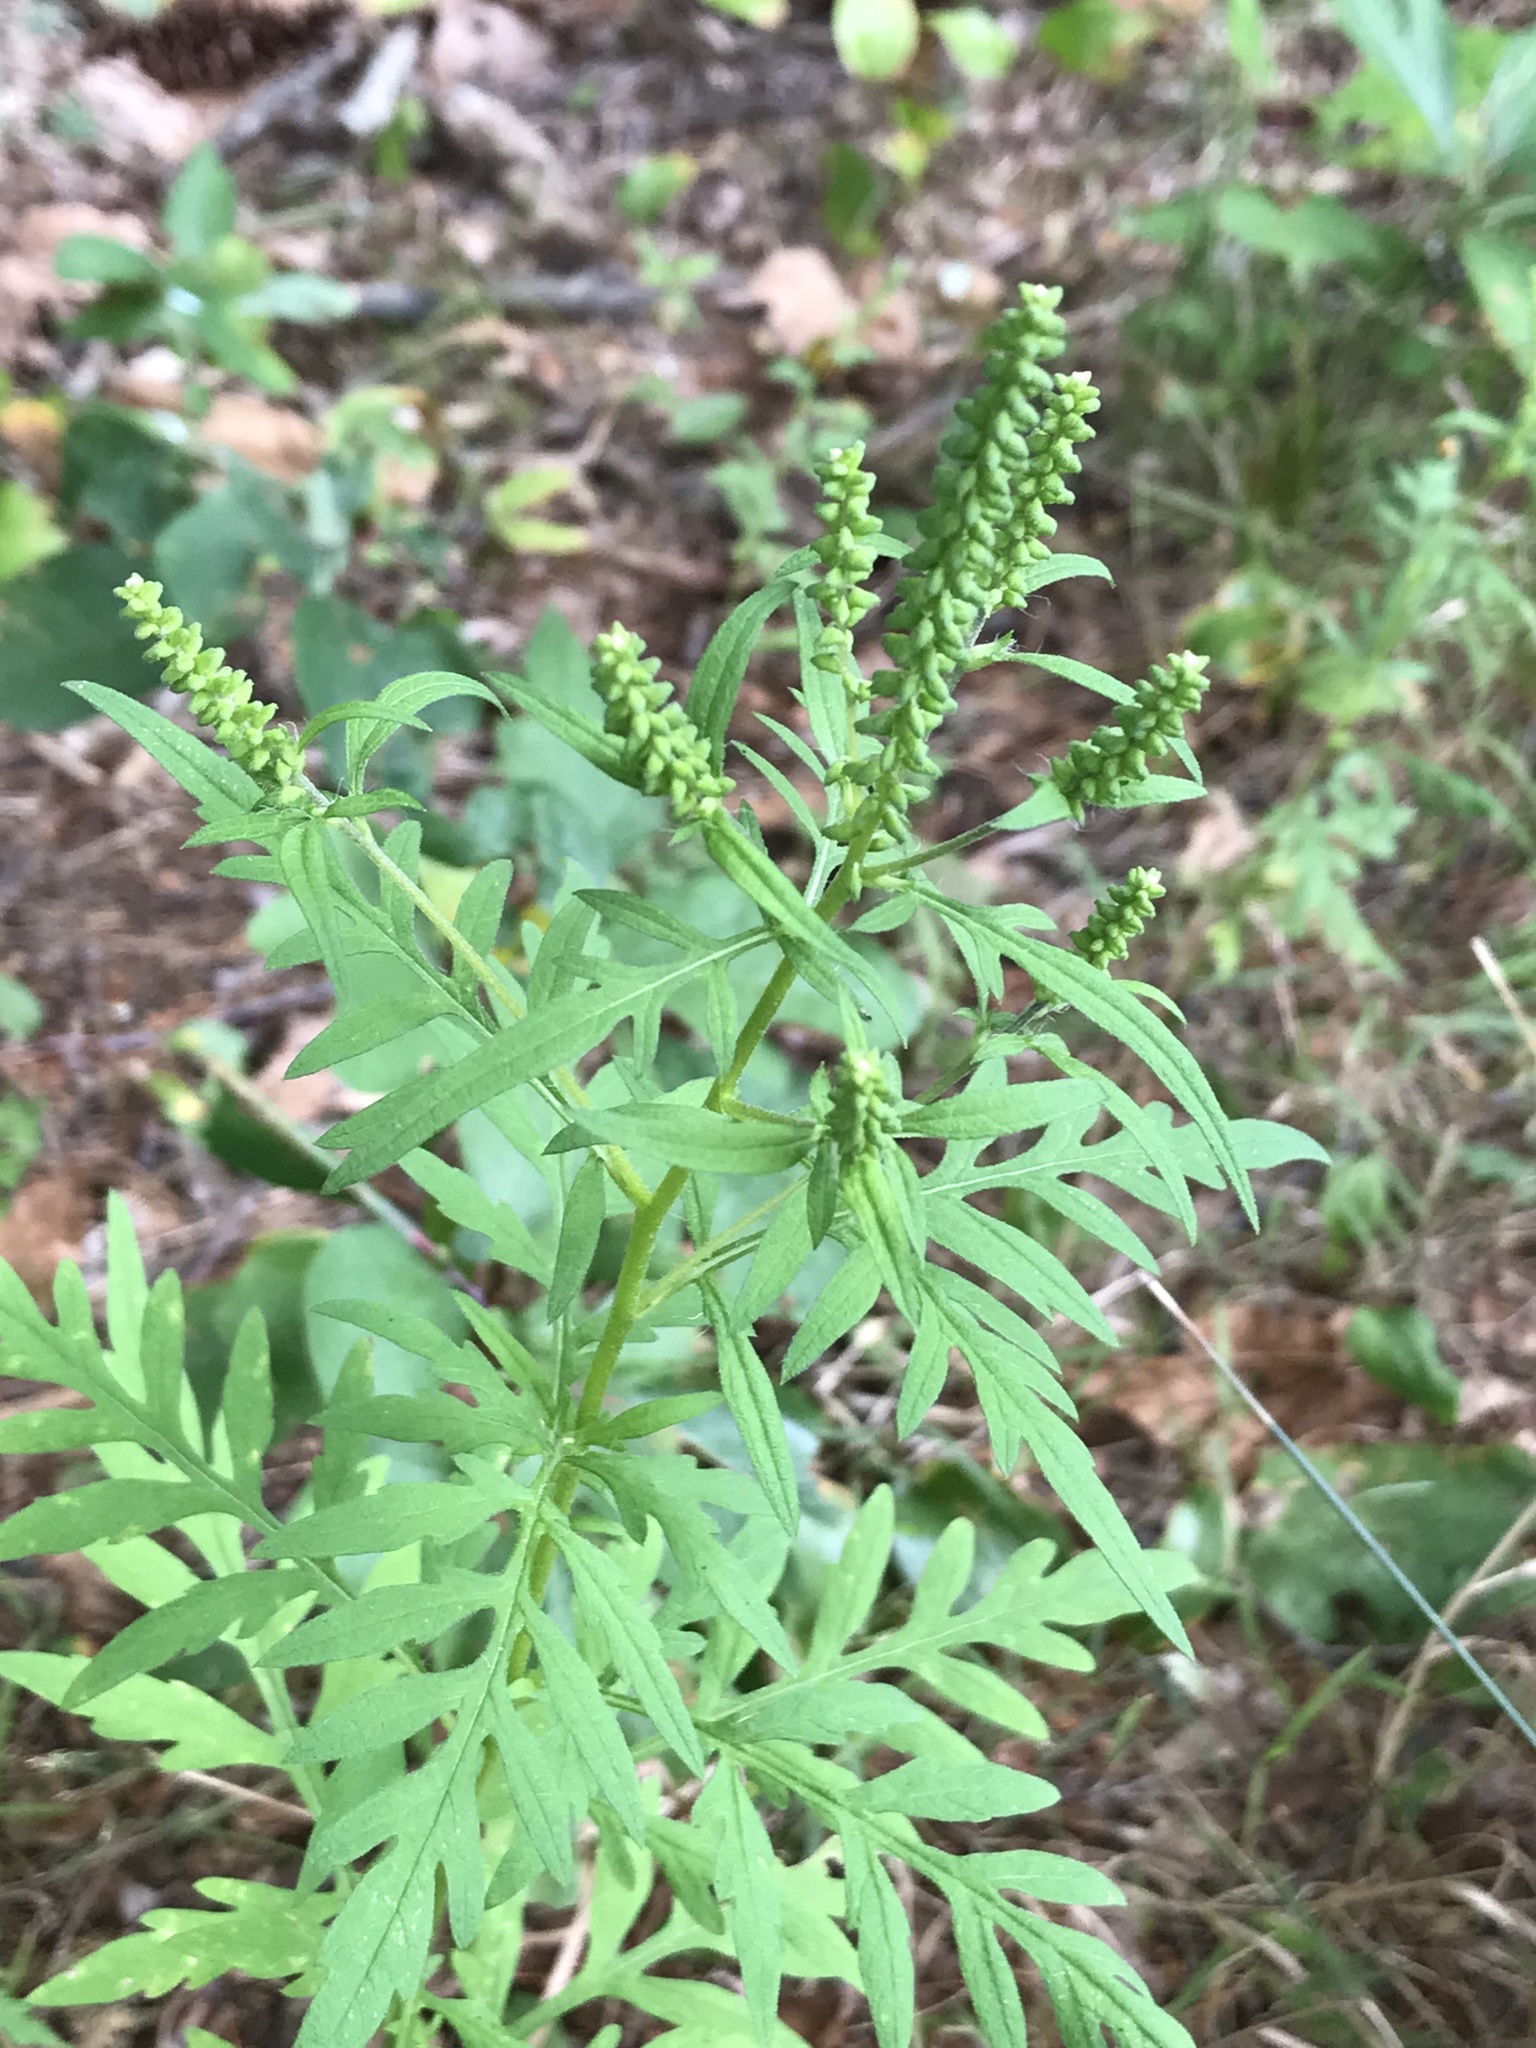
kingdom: Plantae
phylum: Tracheophyta
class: Magnoliopsida
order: Asterales
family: Asteraceae
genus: Ambrosia
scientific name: Ambrosia artemisiifolia
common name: Annual ragweed
